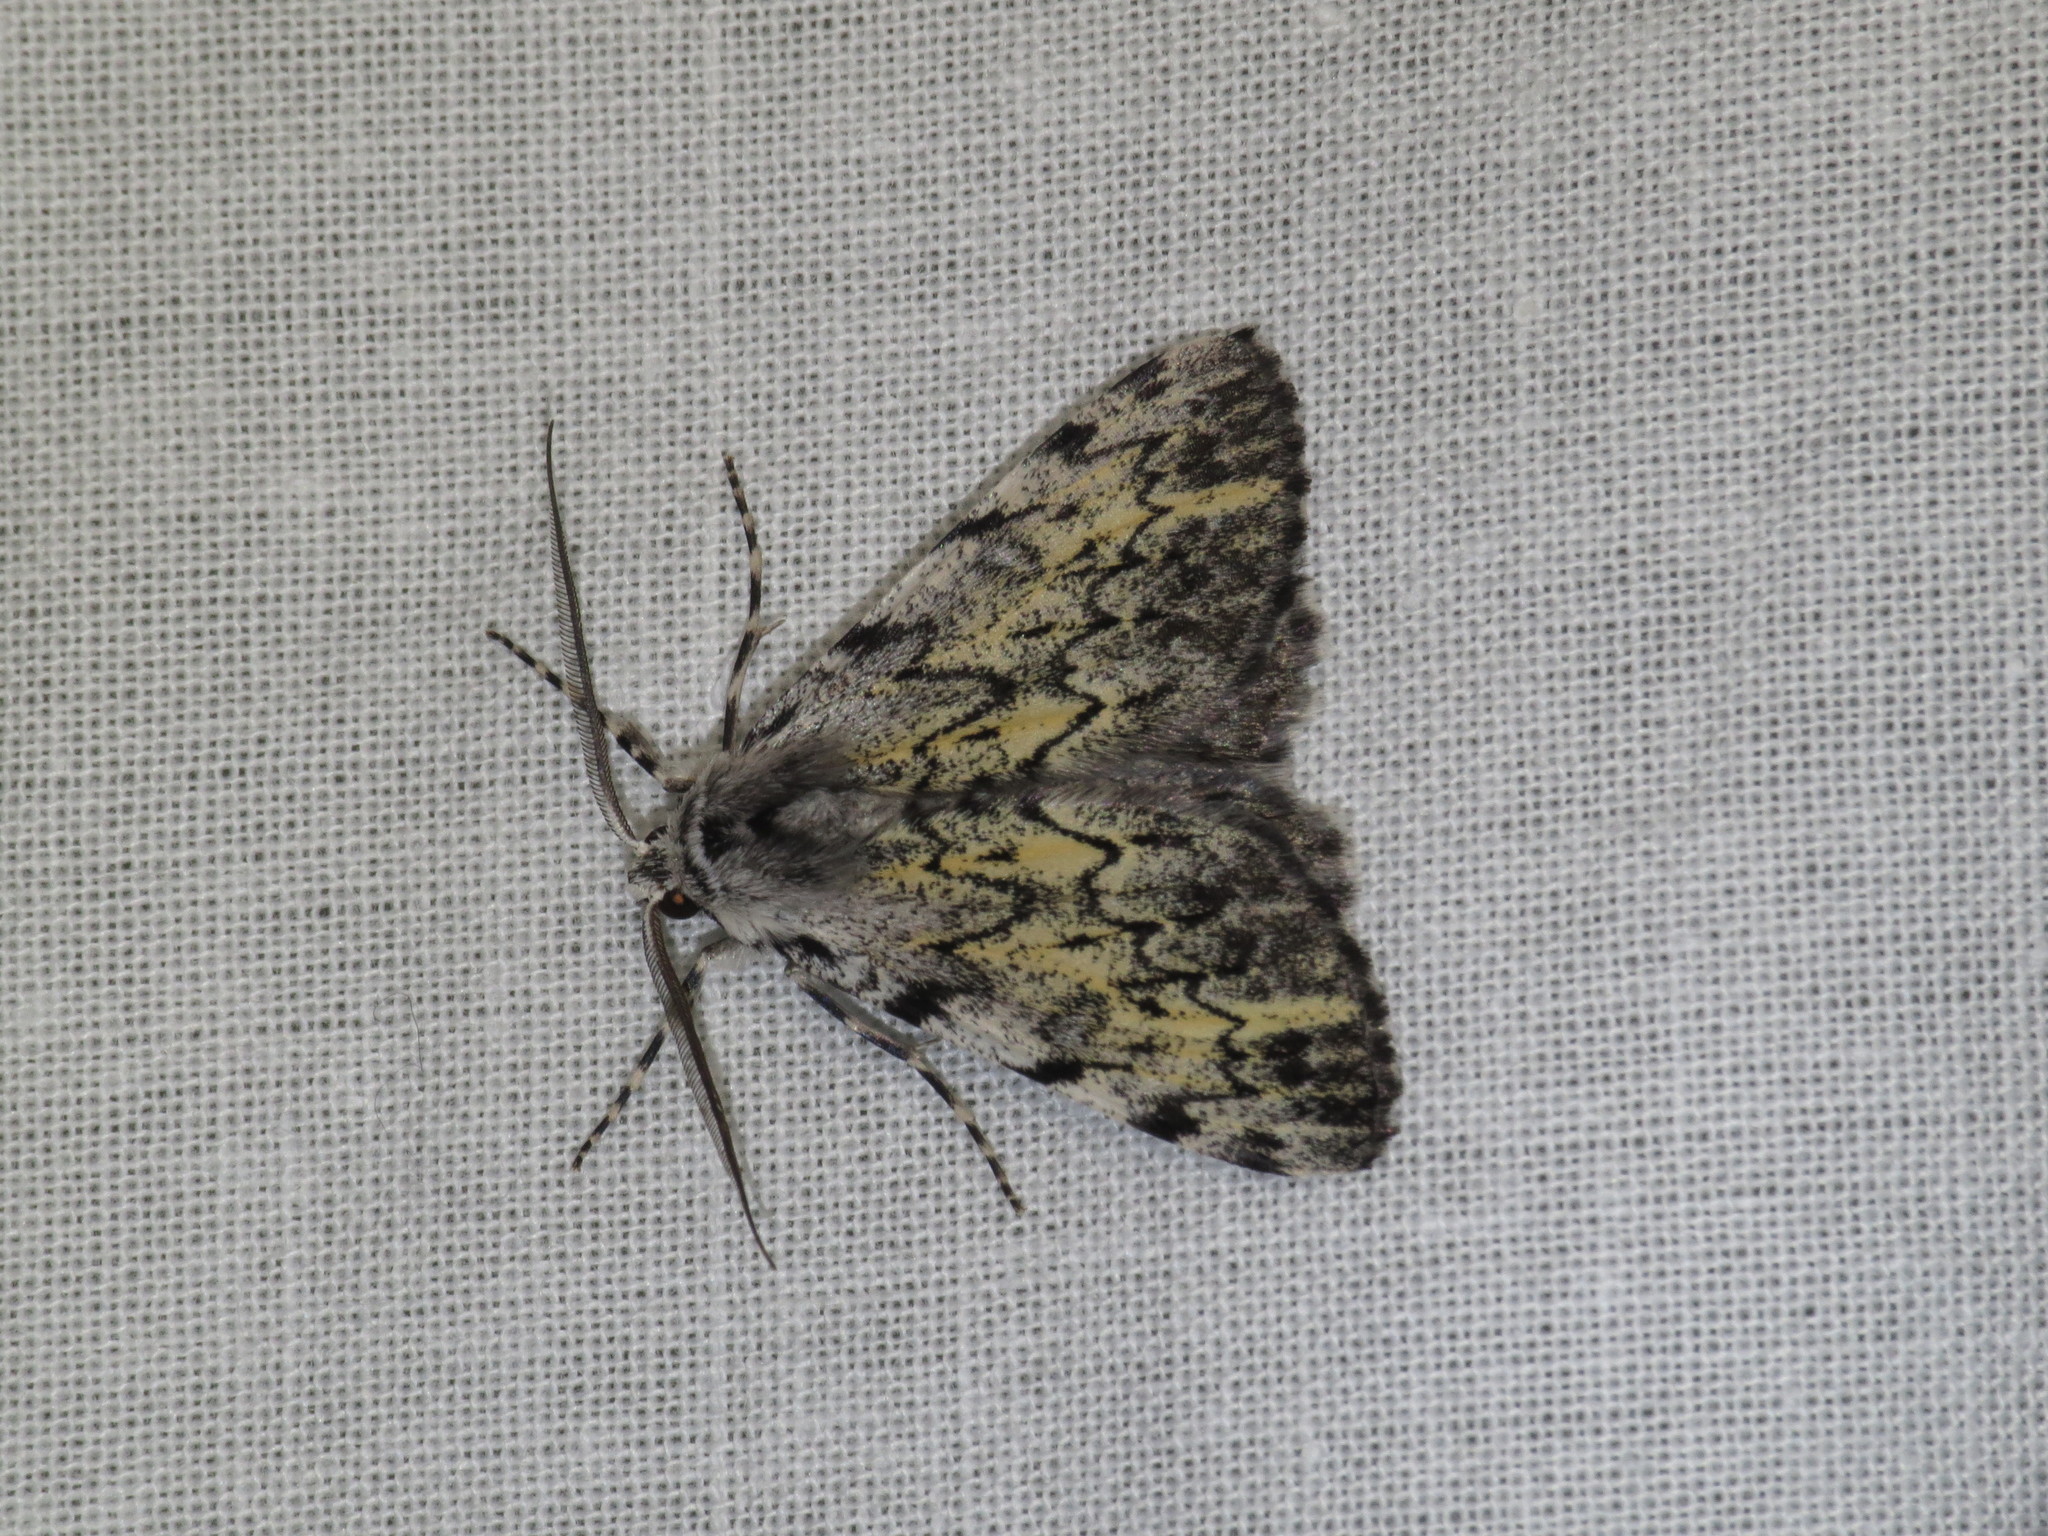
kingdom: Animalia
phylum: Arthropoda
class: Insecta
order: Lepidoptera
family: Geometridae
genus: Rhuma
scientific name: Rhuma divergens
